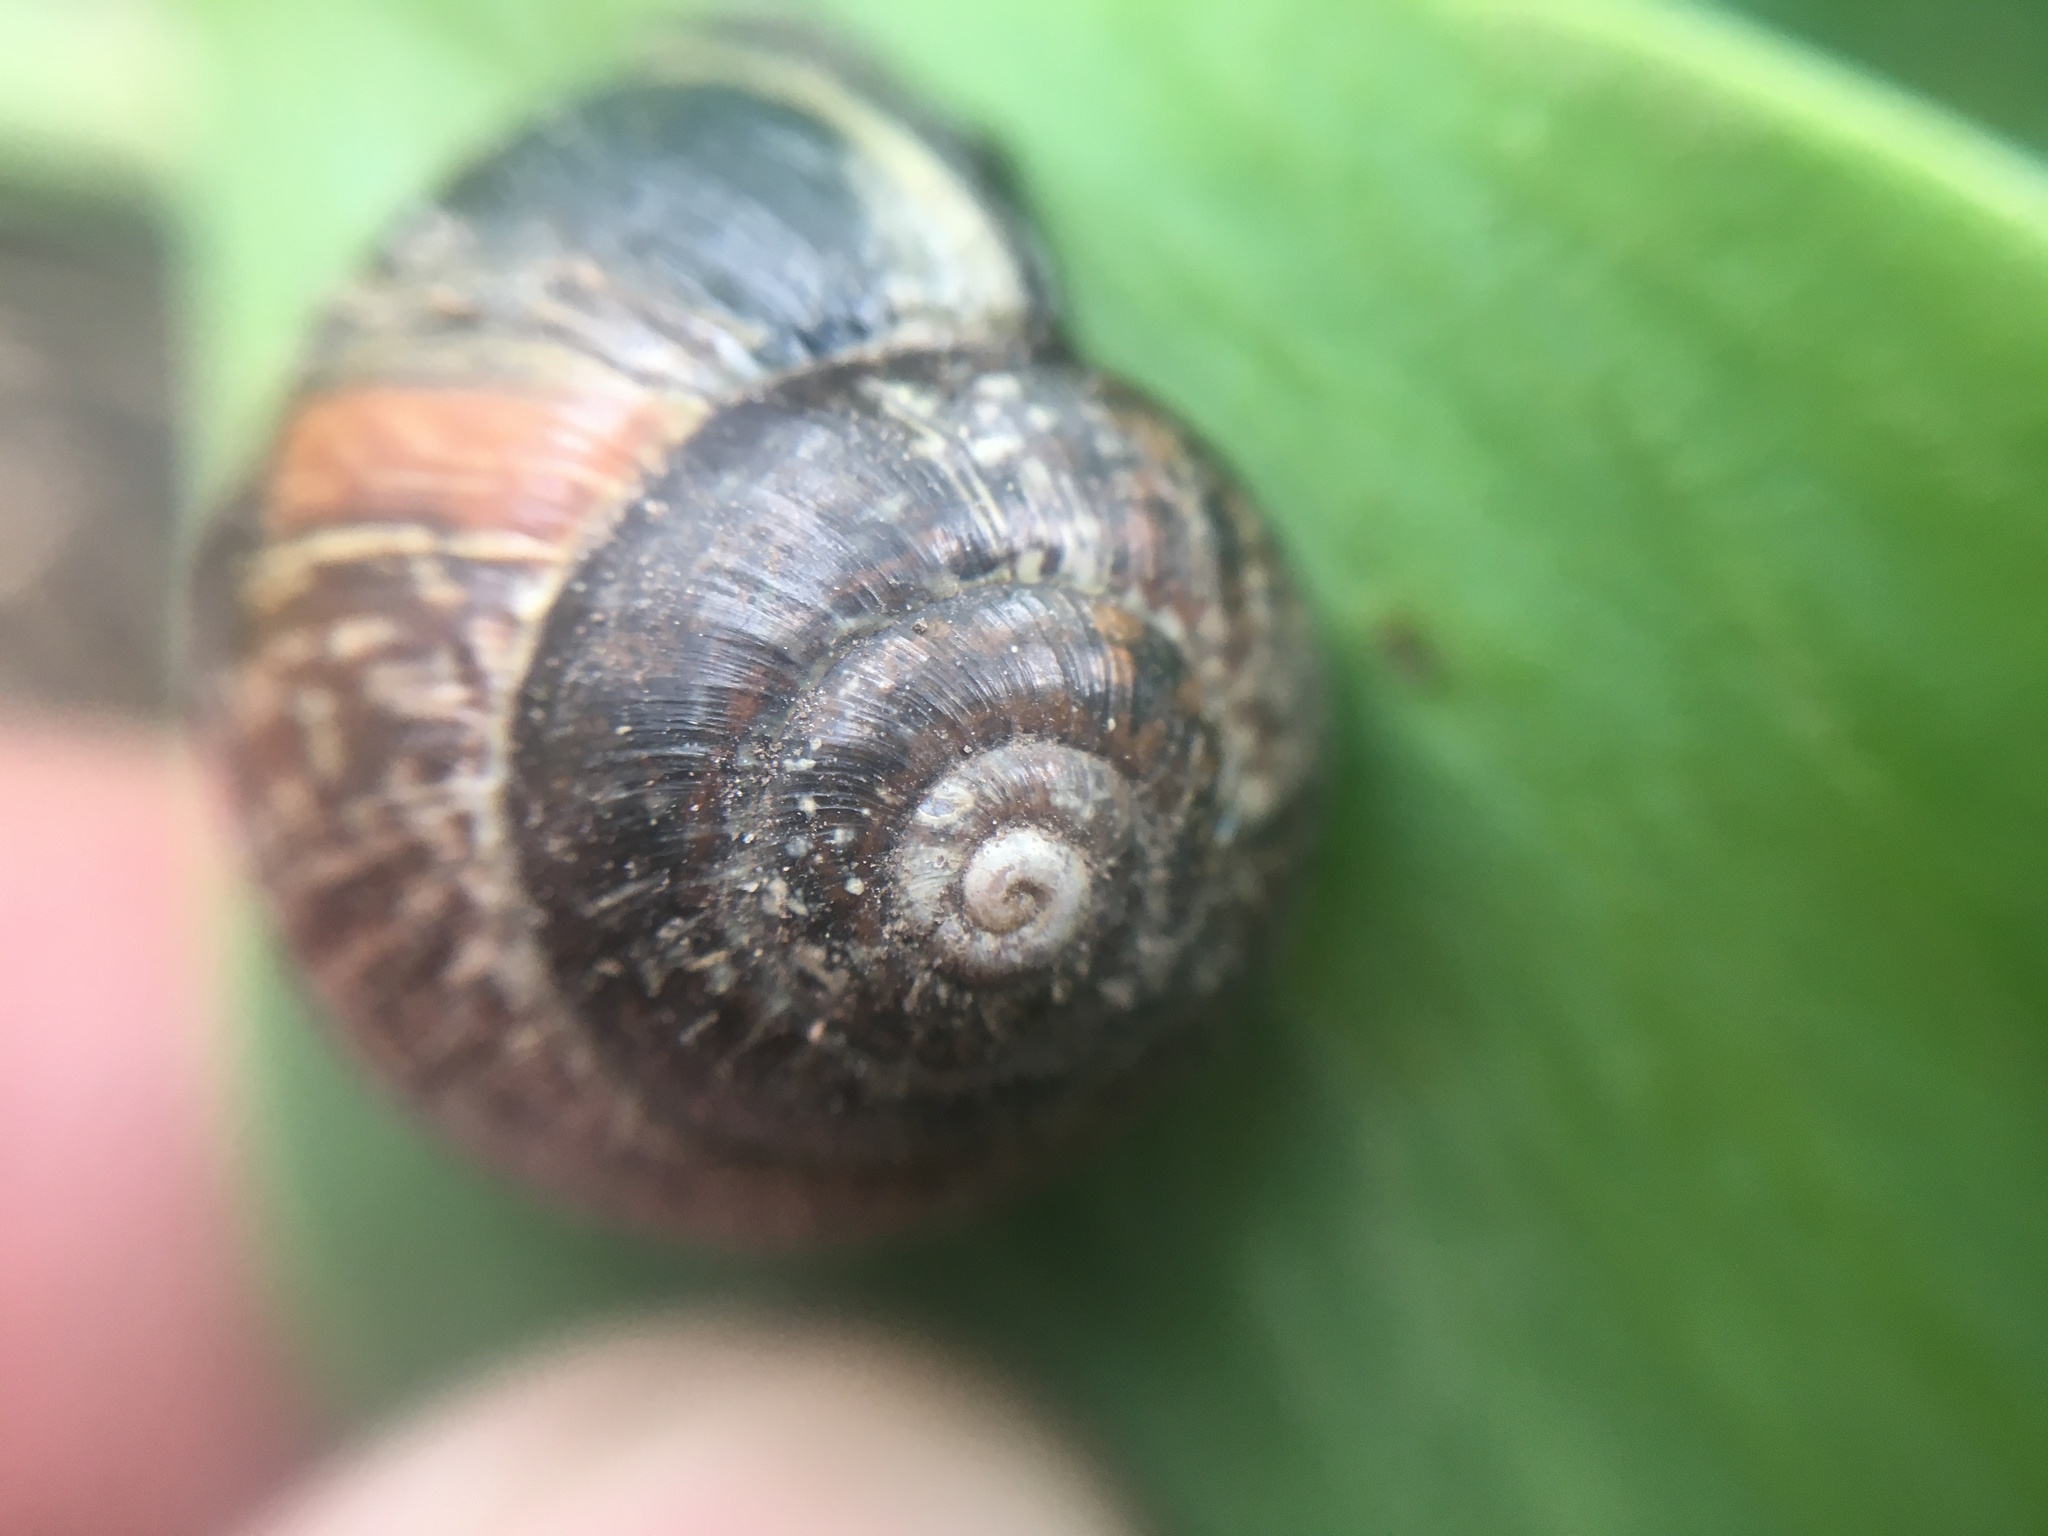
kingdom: Animalia
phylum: Mollusca
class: Gastropoda
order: Stylommatophora
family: Helicidae
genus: Arianta
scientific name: Arianta arbustorum
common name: Copse snail
